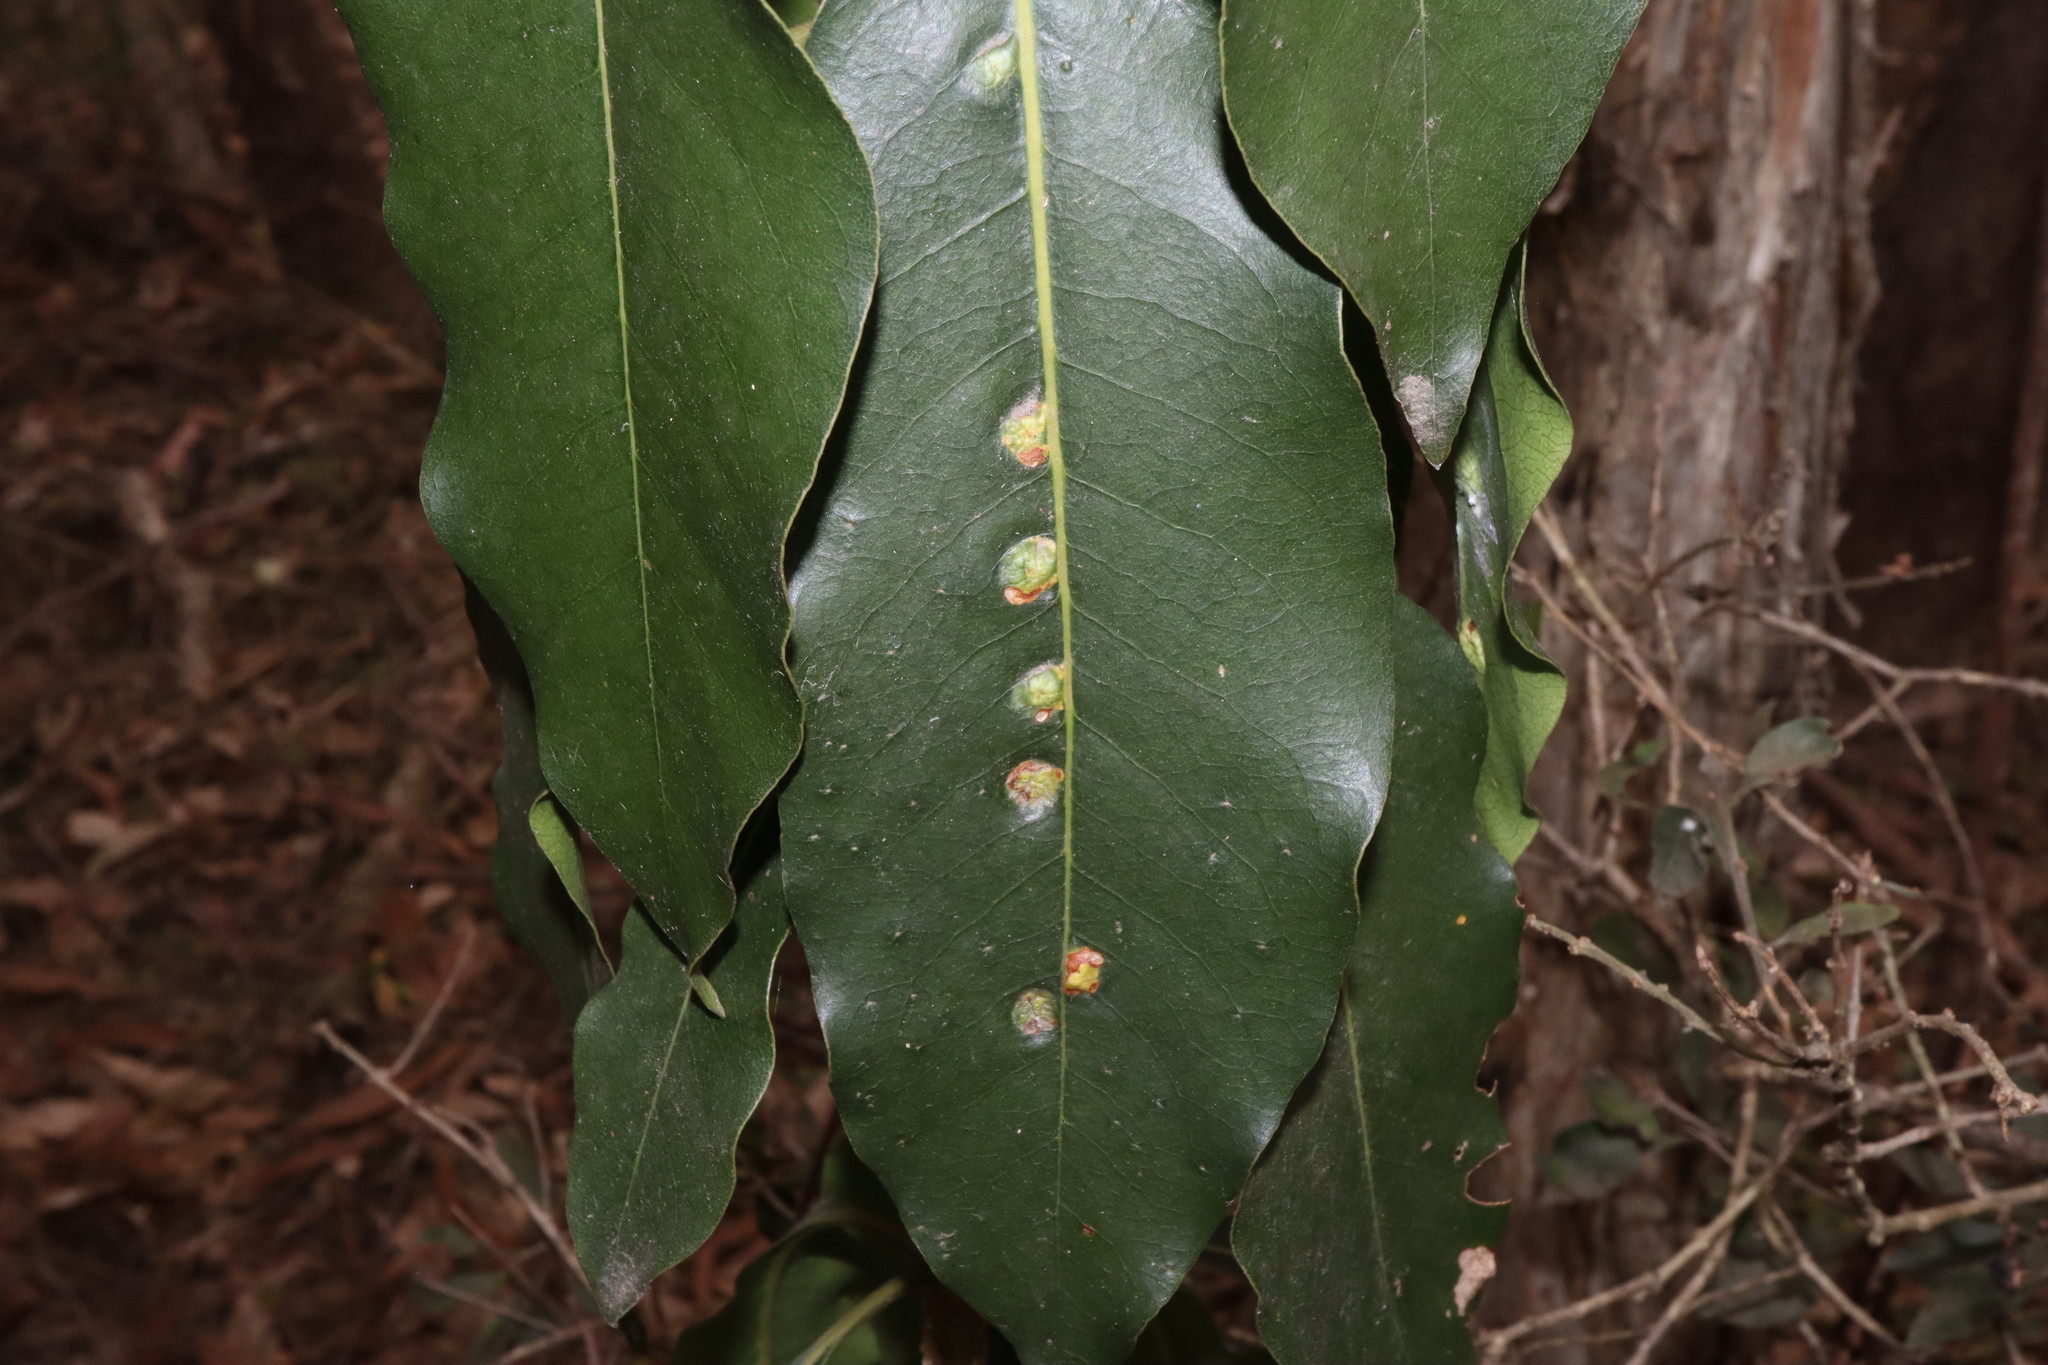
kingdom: Animalia
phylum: Arthropoda
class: Insecta
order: Diptera
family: Agromyzidae
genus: Phytoliriomyza
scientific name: Phytoliriomyza pittosporophylli
